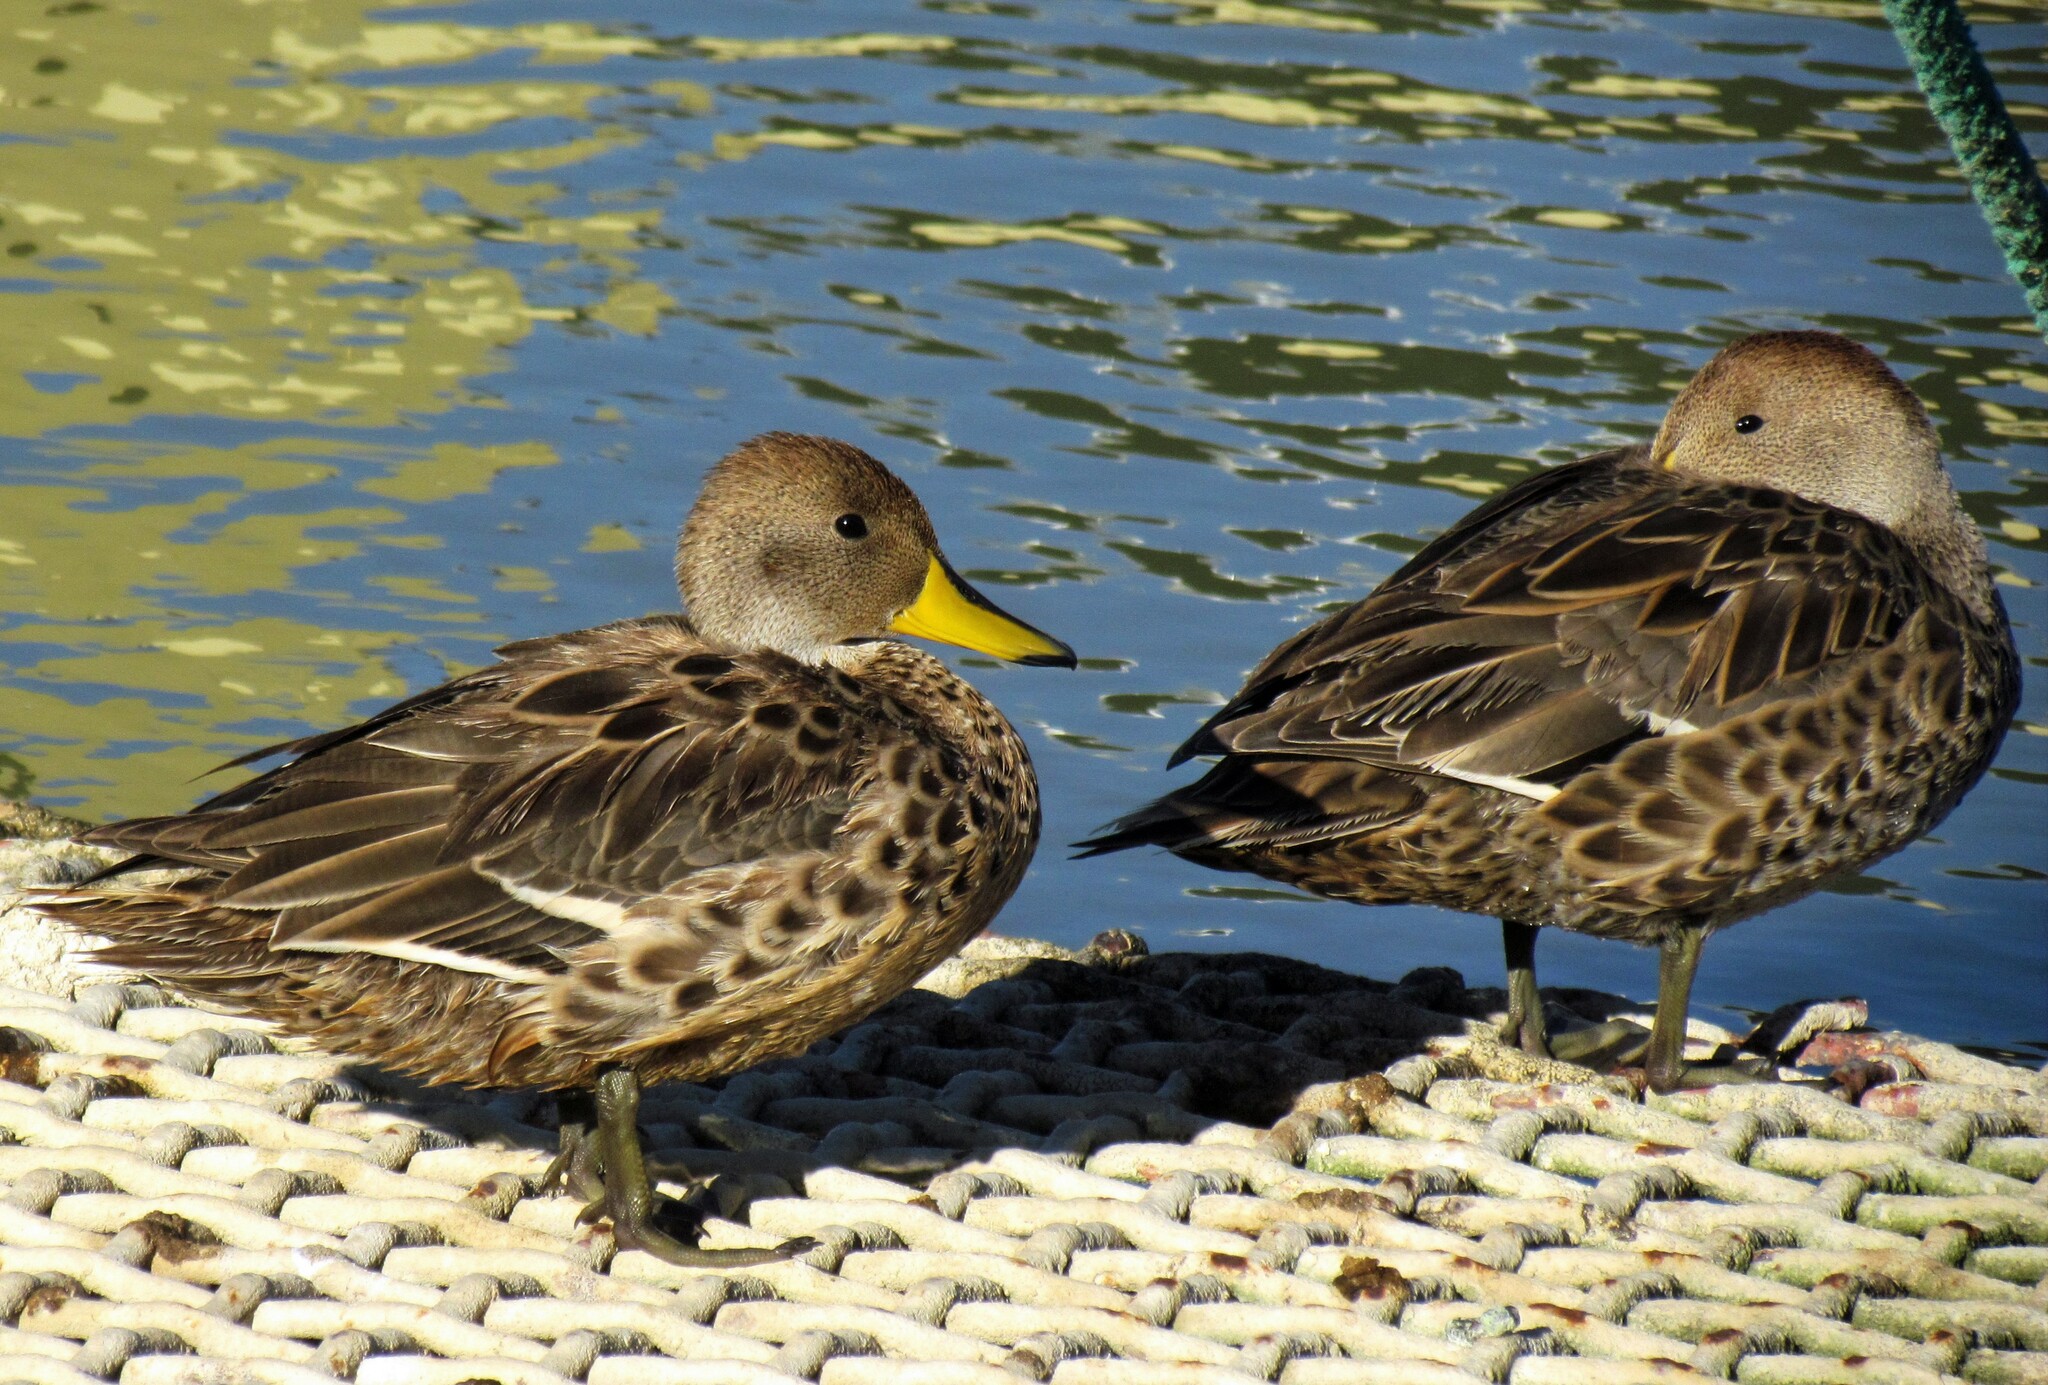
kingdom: Animalia
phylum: Chordata
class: Aves
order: Anseriformes
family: Anatidae
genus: Anas
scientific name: Anas georgica
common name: Yellow-billed pintail
